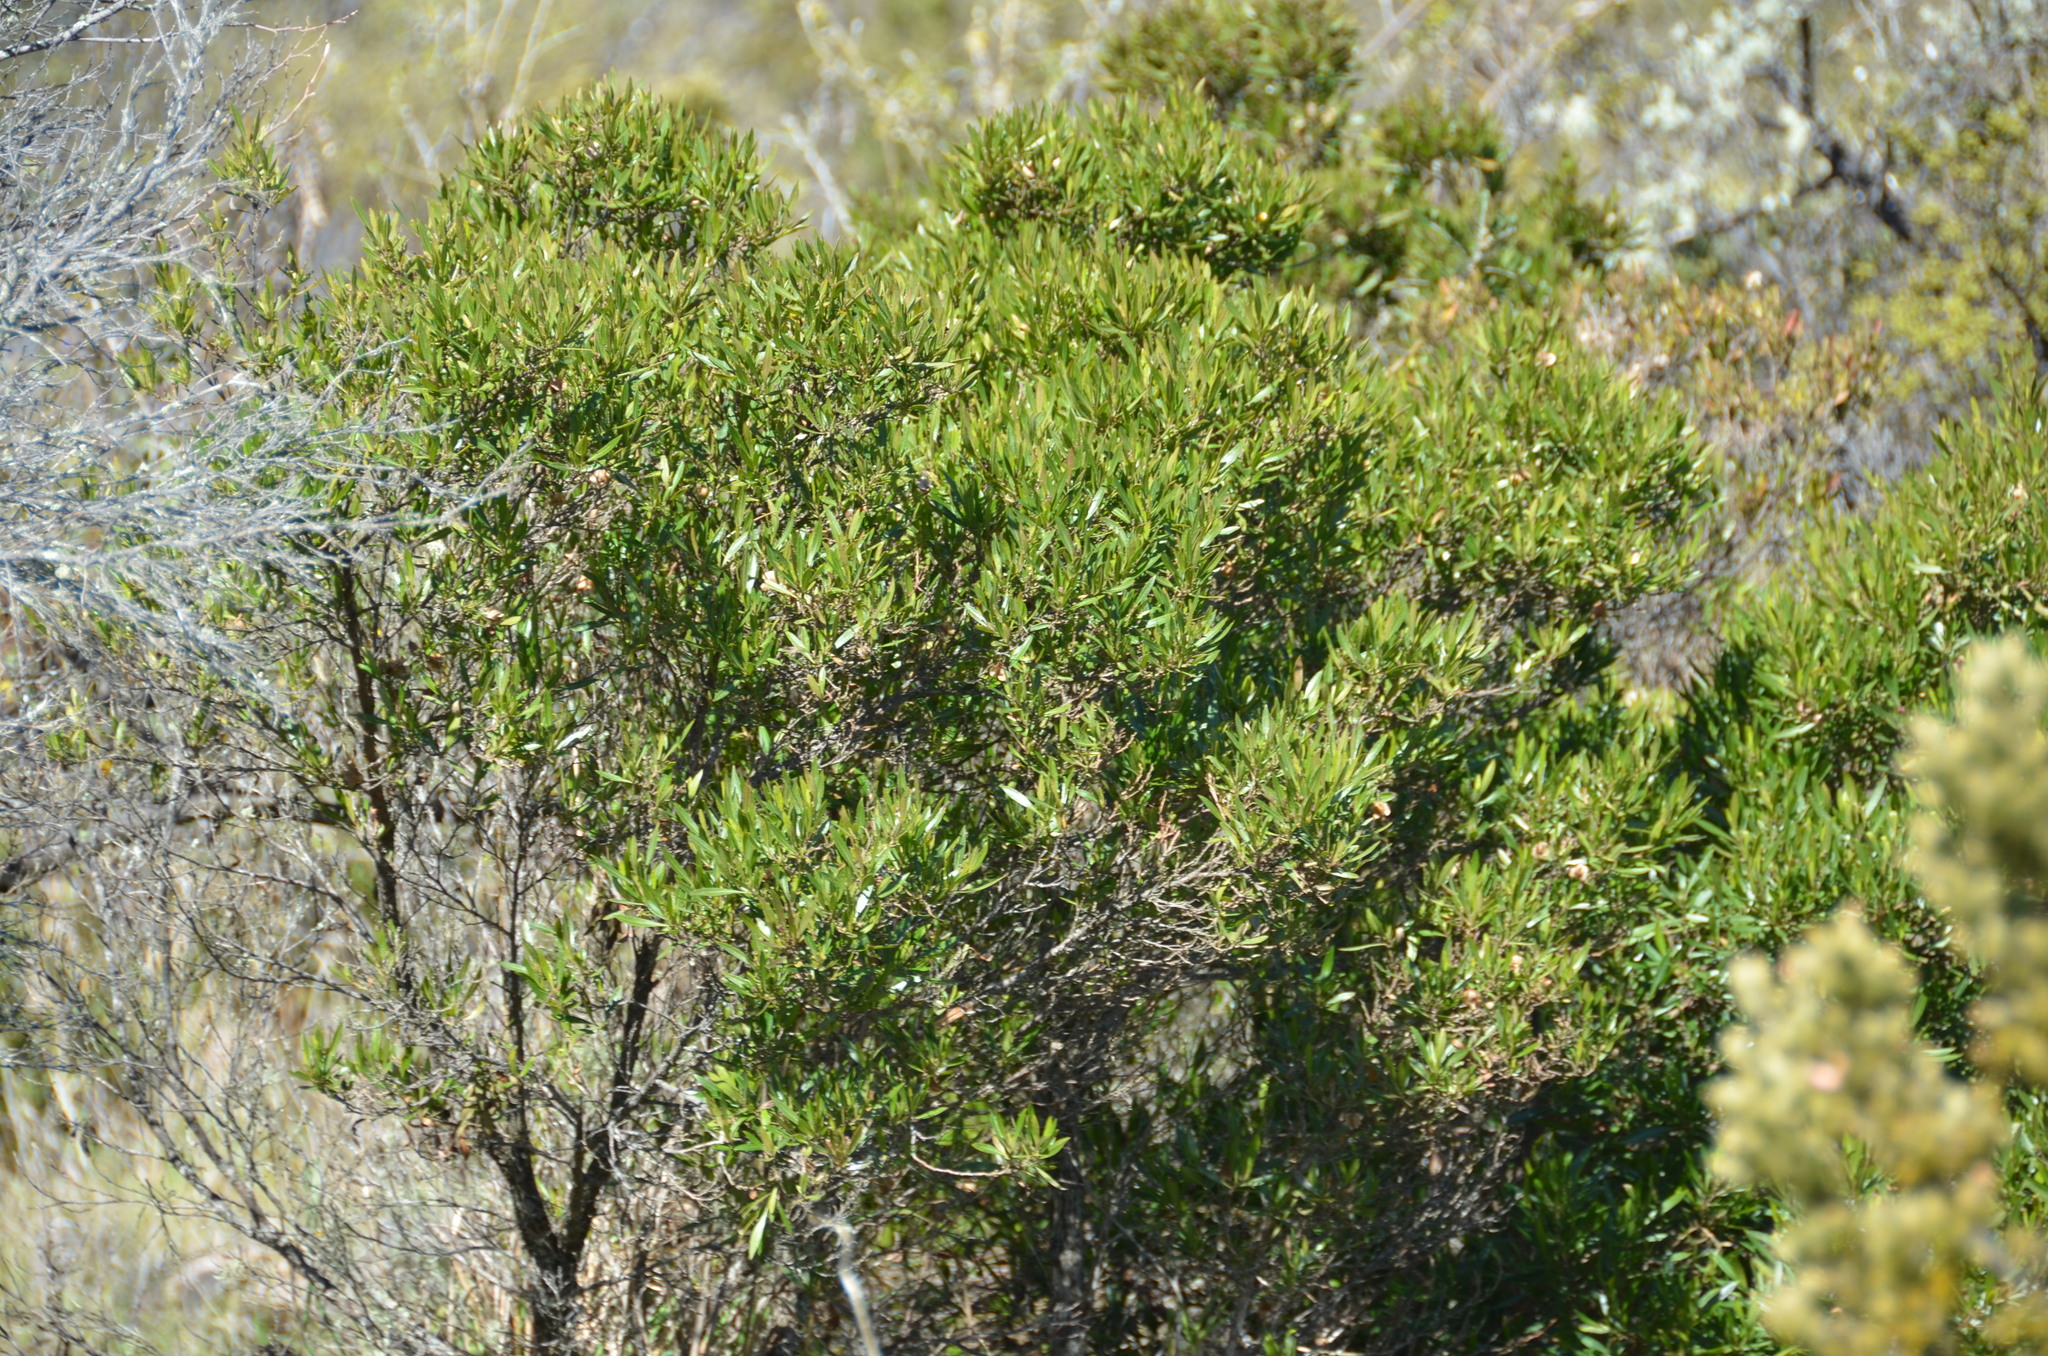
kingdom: Plantae
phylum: Tracheophyta
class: Magnoliopsida
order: Sapindales
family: Sapindaceae
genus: Dodonaea
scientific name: Dodonaea viscosa
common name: Hopbush
